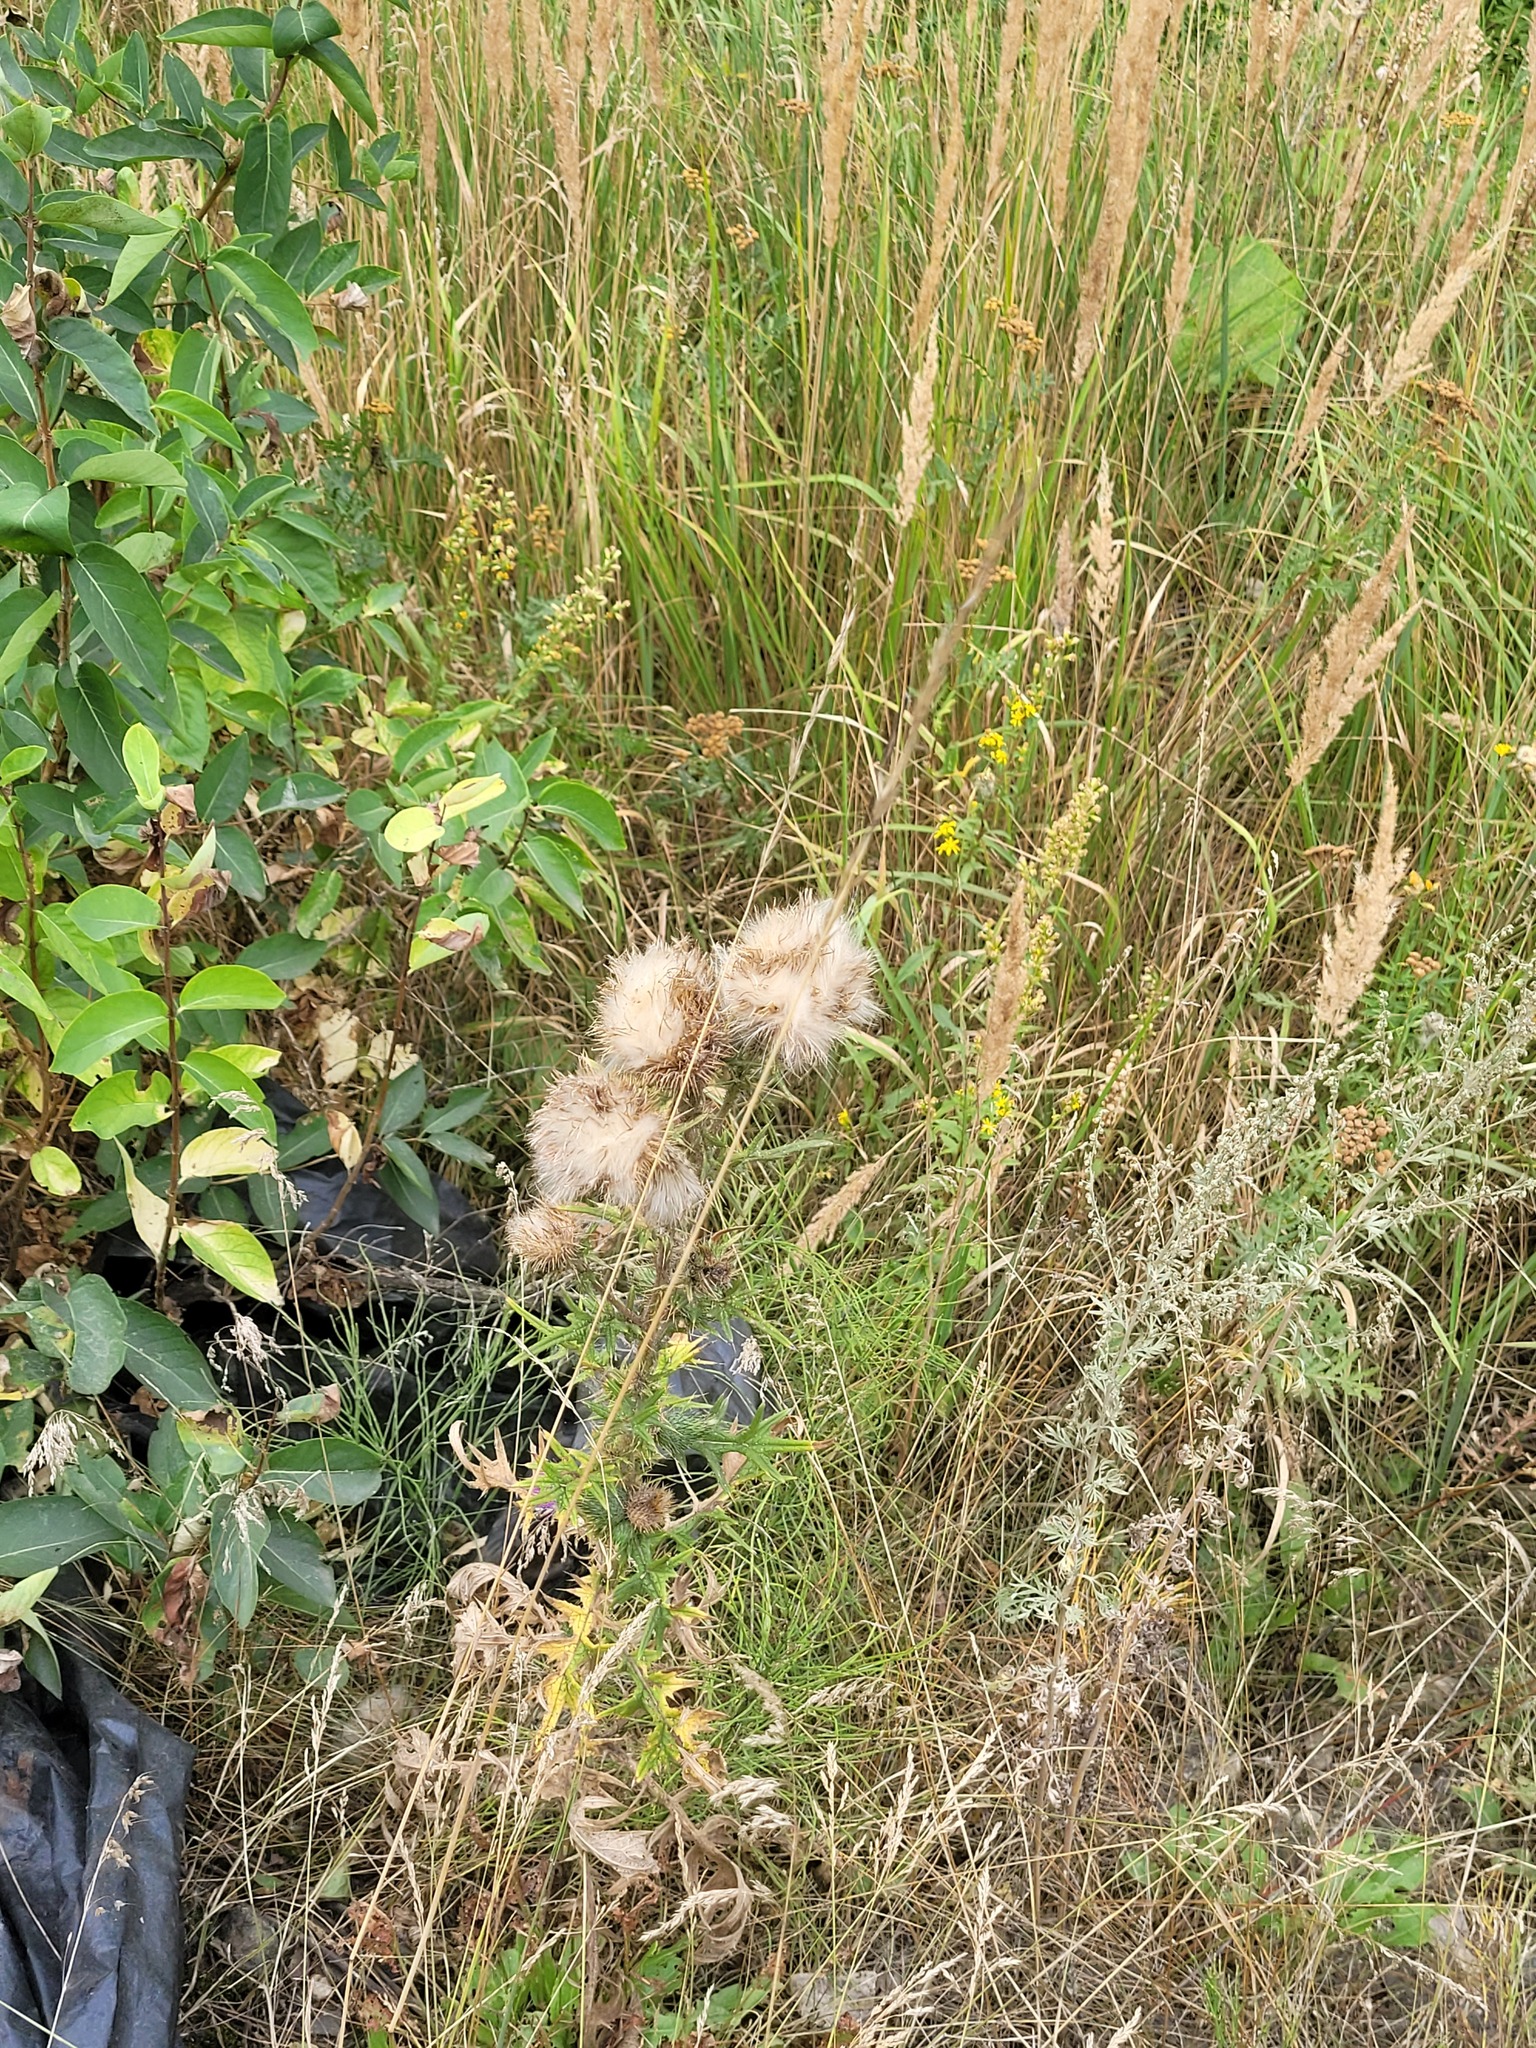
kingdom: Plantae
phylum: Tracheophyta
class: Magnoliopsida
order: Asterales
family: Asteraceae
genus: Cirsium
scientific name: Cirsium vulgare
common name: Bull thistle
